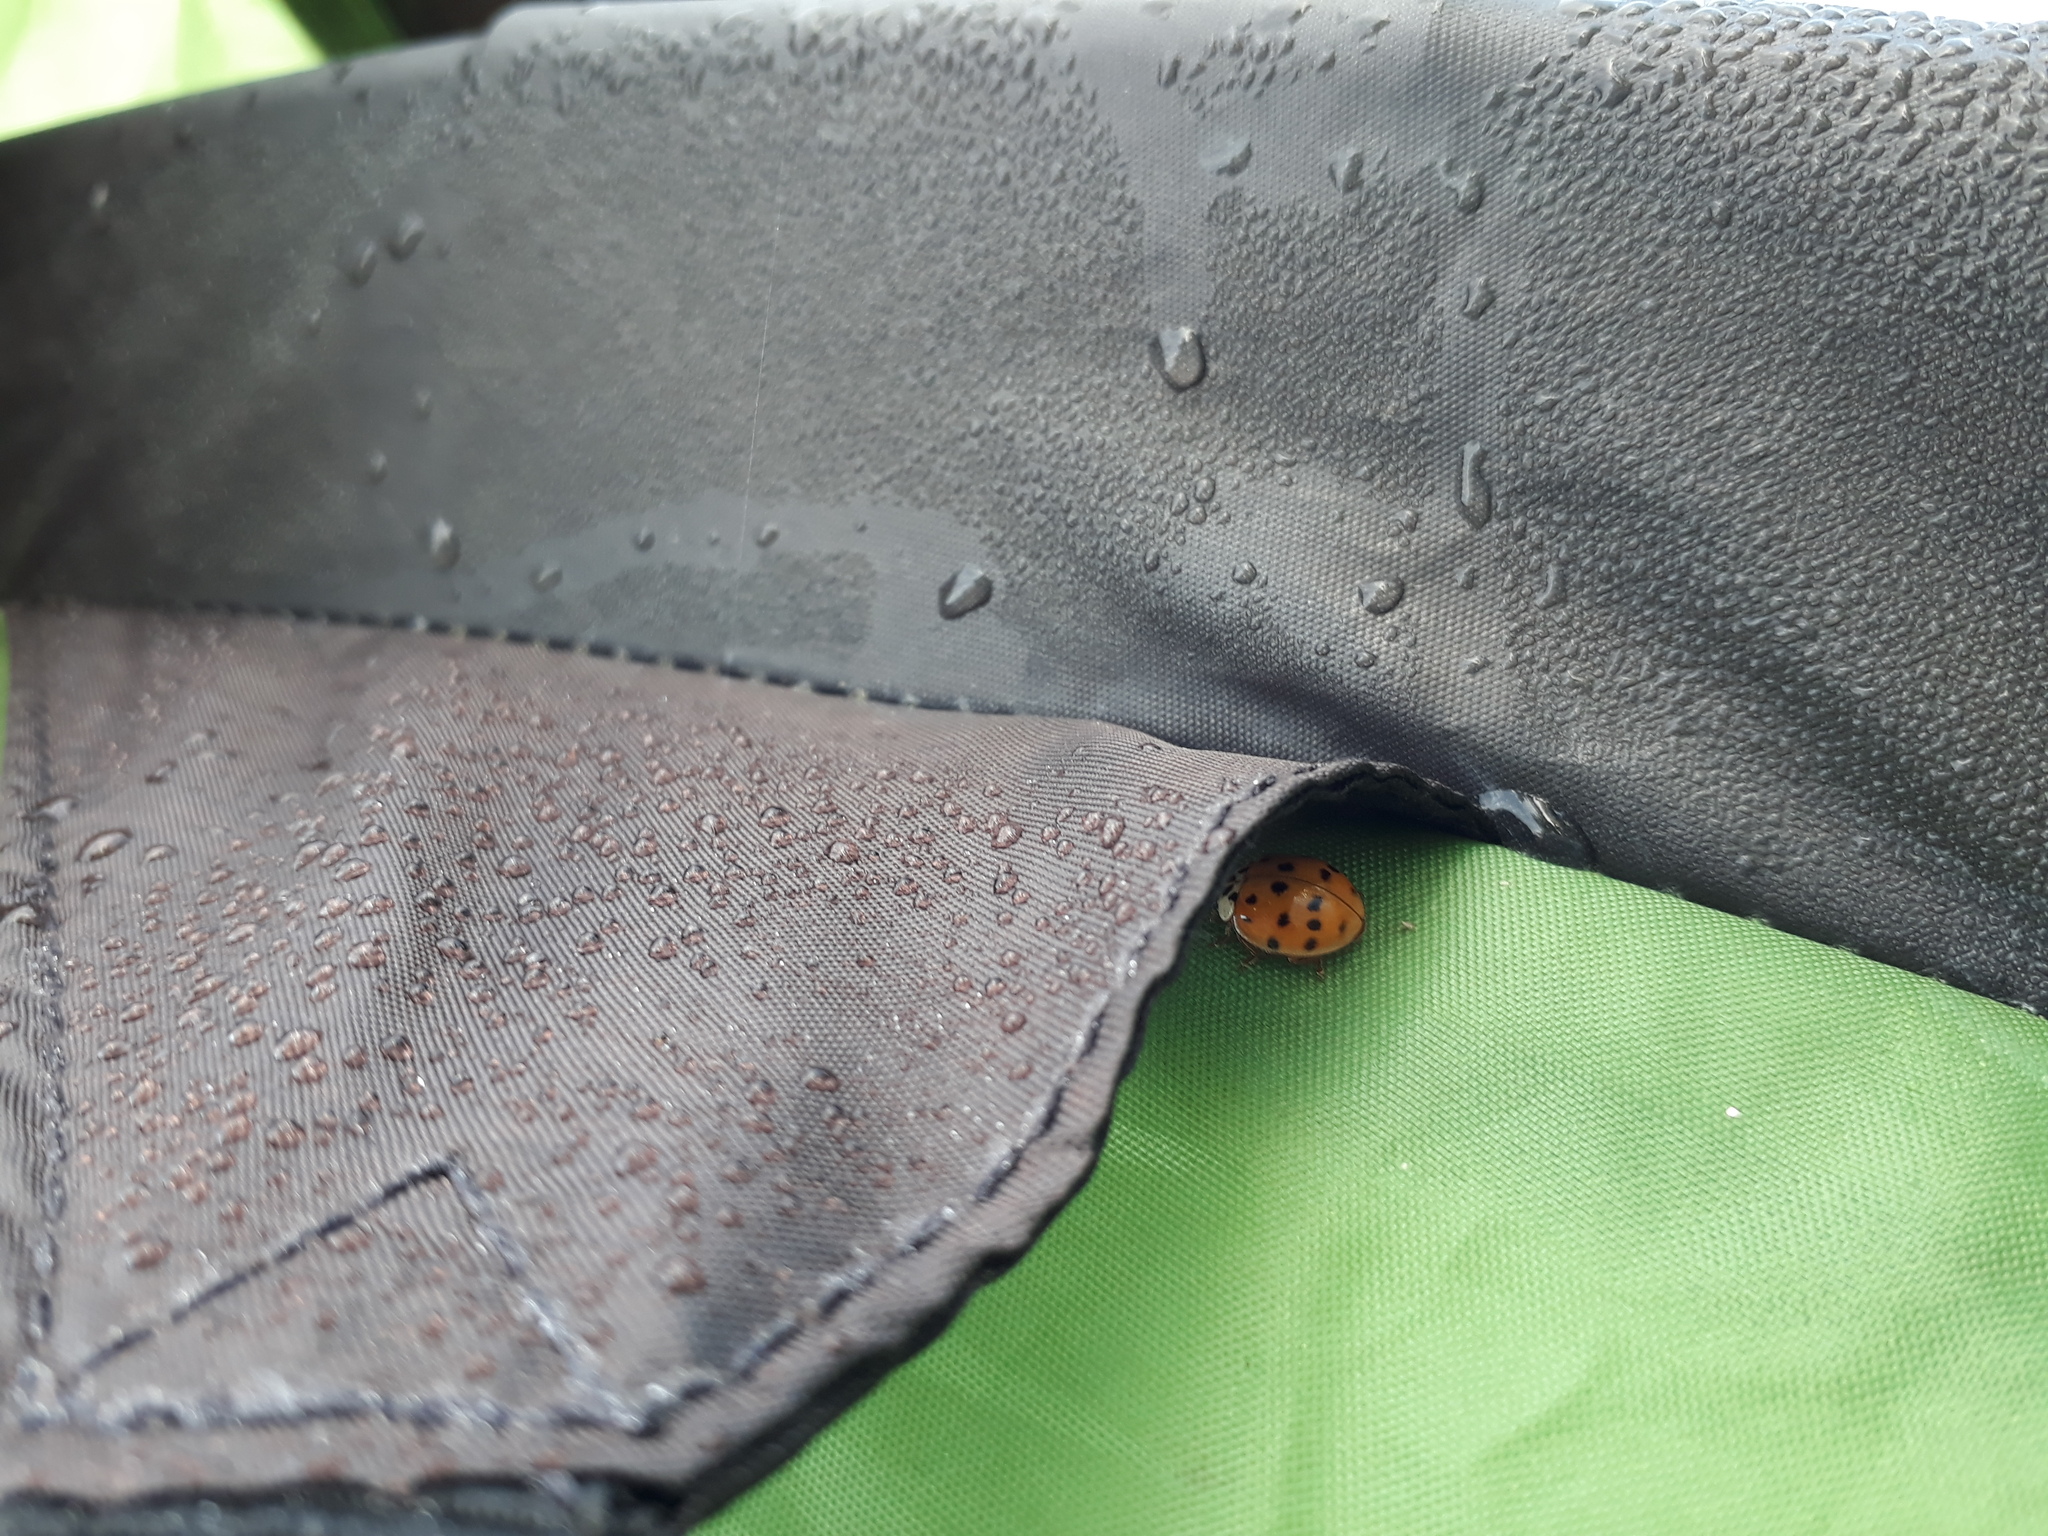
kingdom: Animalia
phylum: Arthropoda
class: Insecta
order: Coleoptera
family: Coccinellidae
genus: Harmonia
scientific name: Harmonia axyridis
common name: Harlequin ladybird
